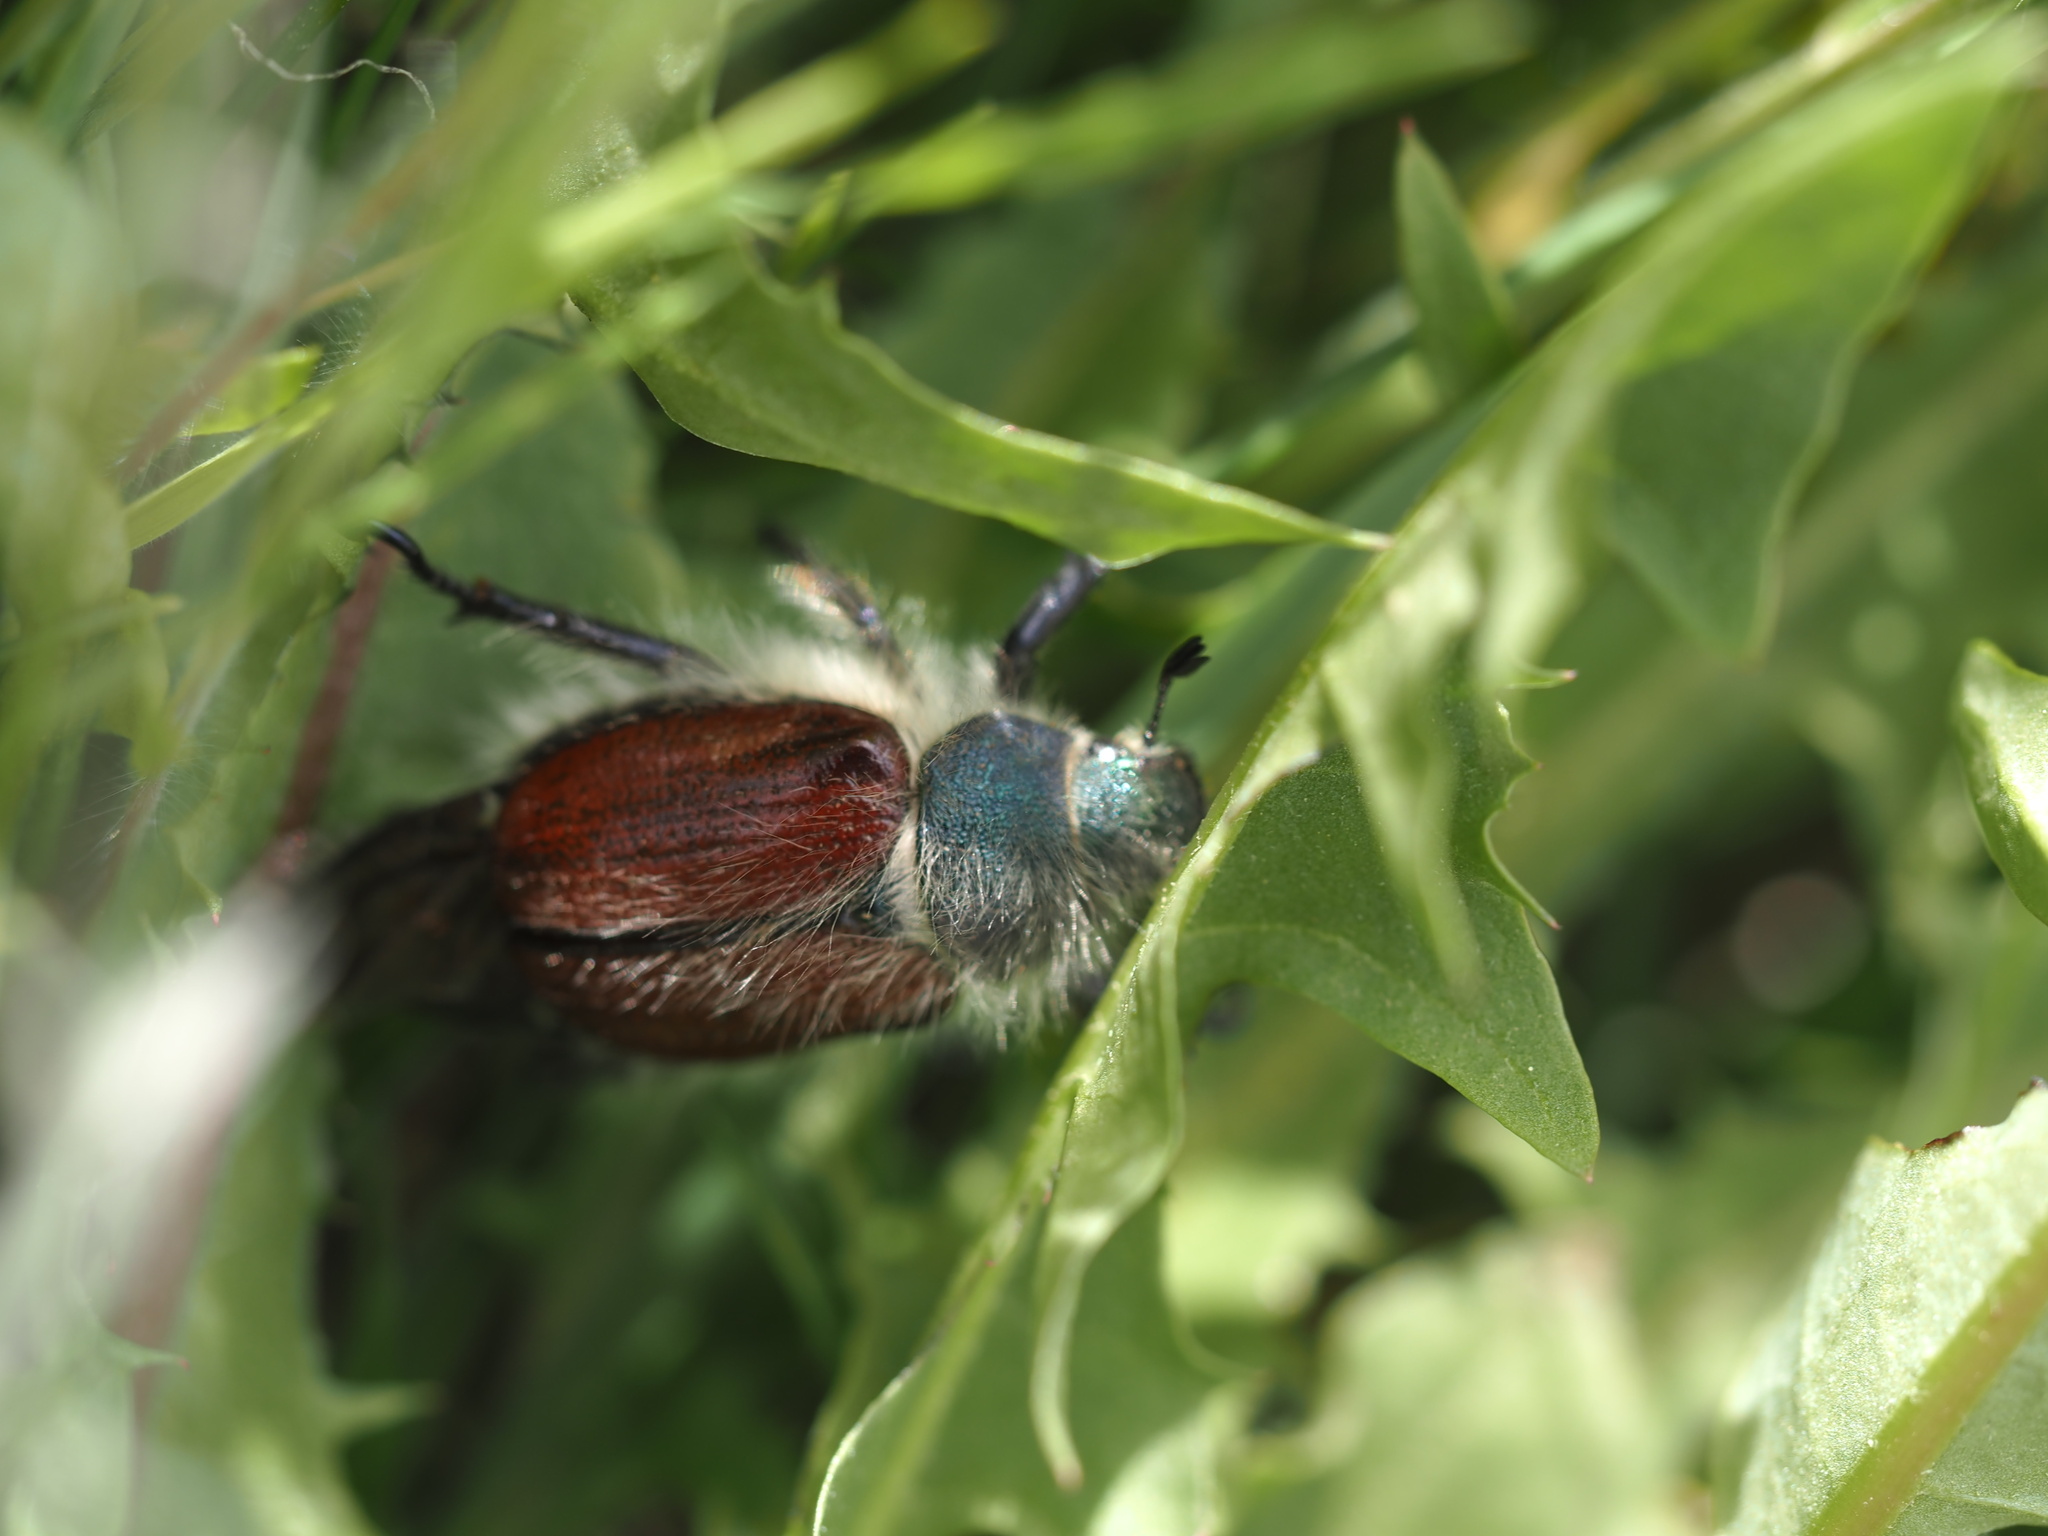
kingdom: Animalia
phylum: Arthropoda
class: Insecta
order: Coleoptera
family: Scarabaeidae
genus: Paracotalpa
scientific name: Paracotalpa granicollis
